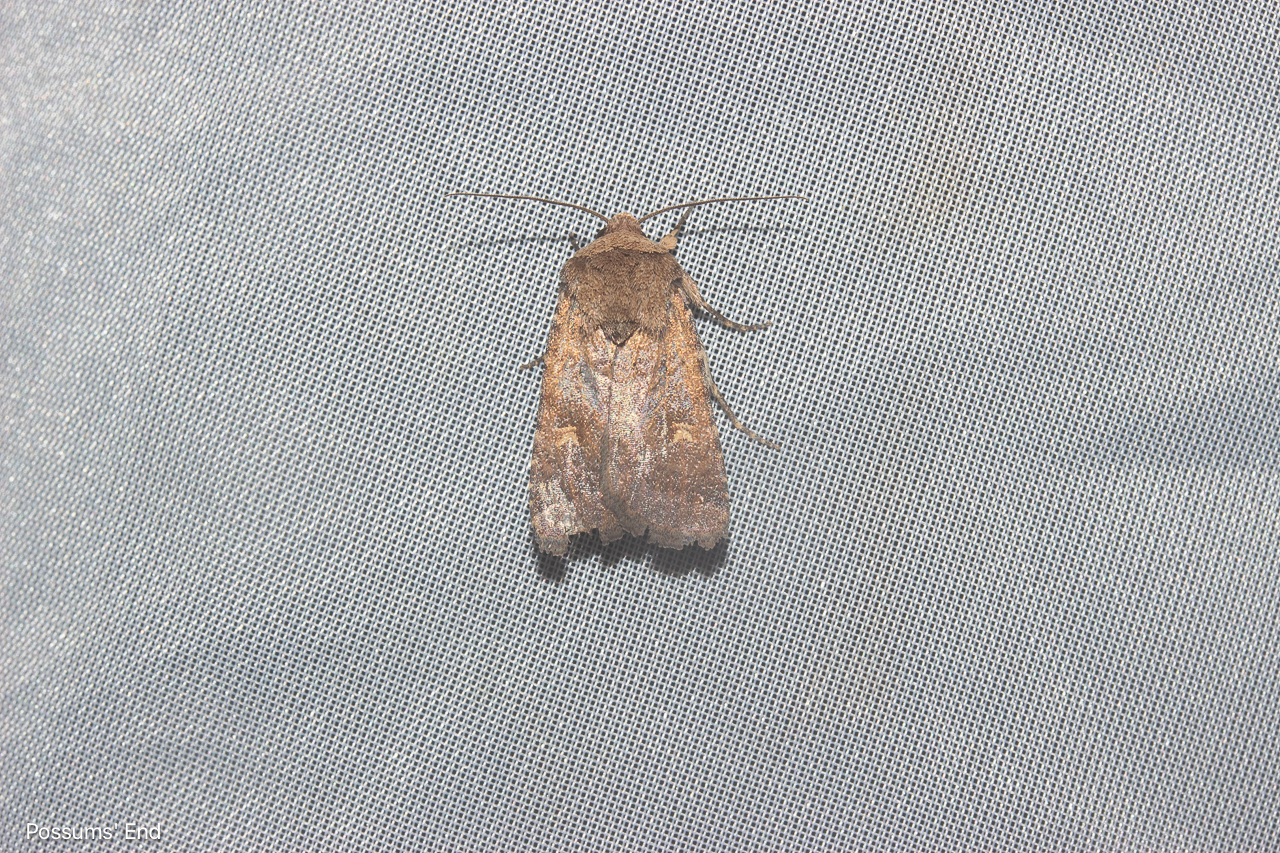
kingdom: Animalia
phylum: Arthropoda
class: Insecta
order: Lepidoptera
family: Noctuidae
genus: Proteuxoa
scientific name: Proteuxoa tetronycha
